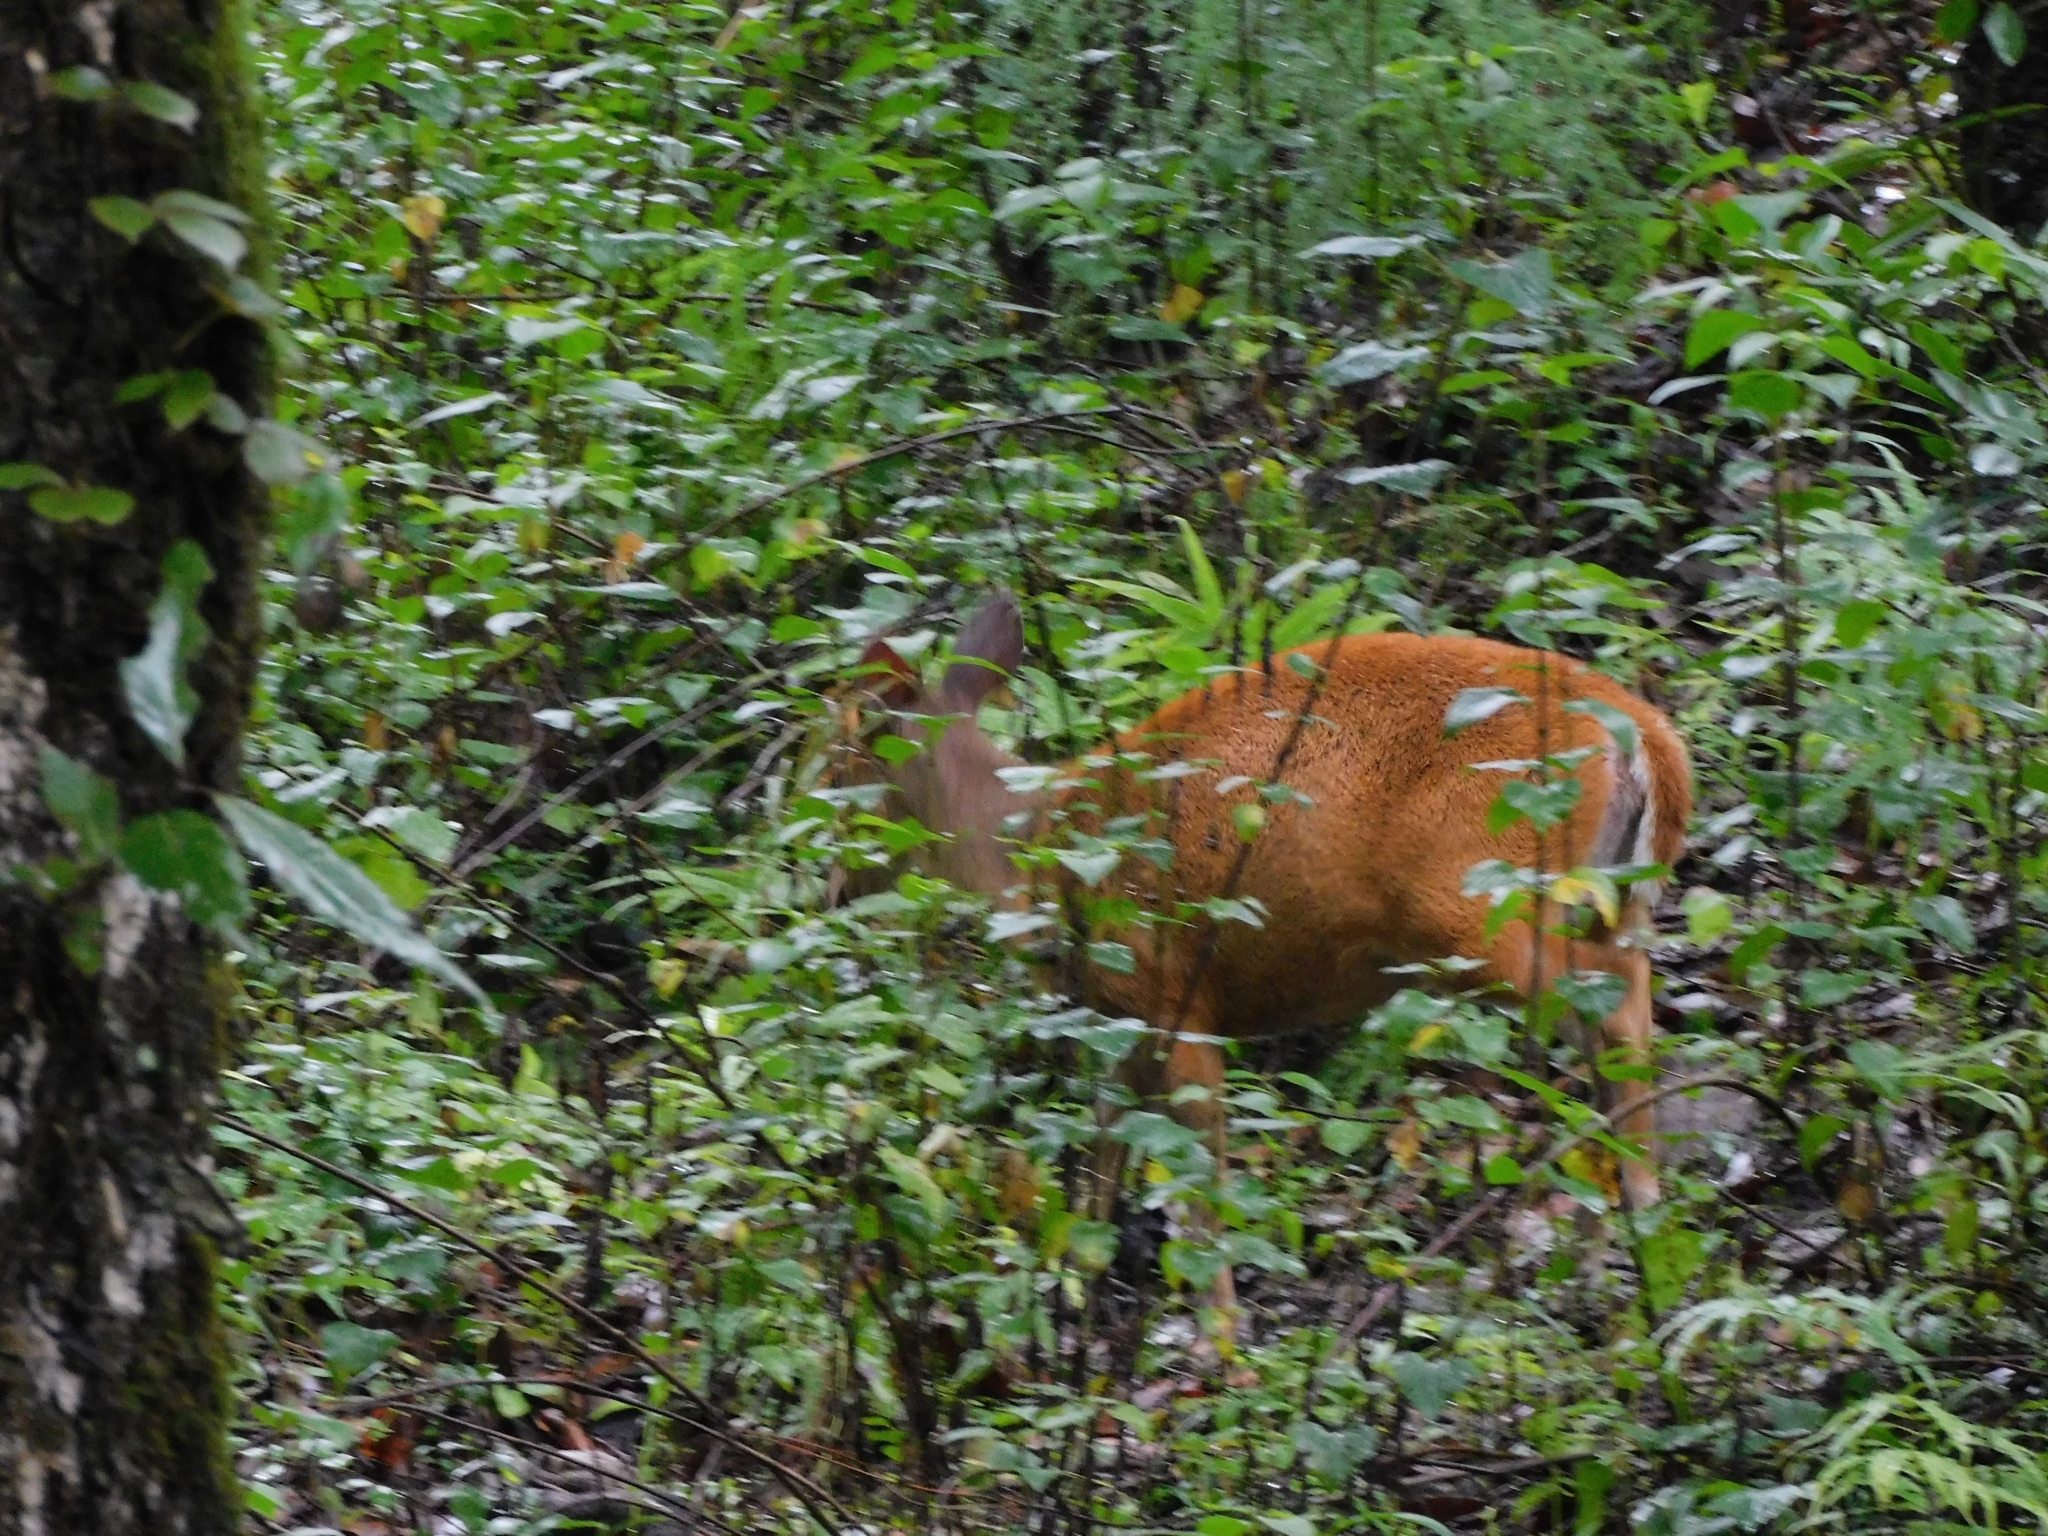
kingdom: Animalia
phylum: Chordata
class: Mammalia
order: Artiodactyla
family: Cervidae
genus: Muntiacus
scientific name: Muntiacus muntjak
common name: Indian muntjac
